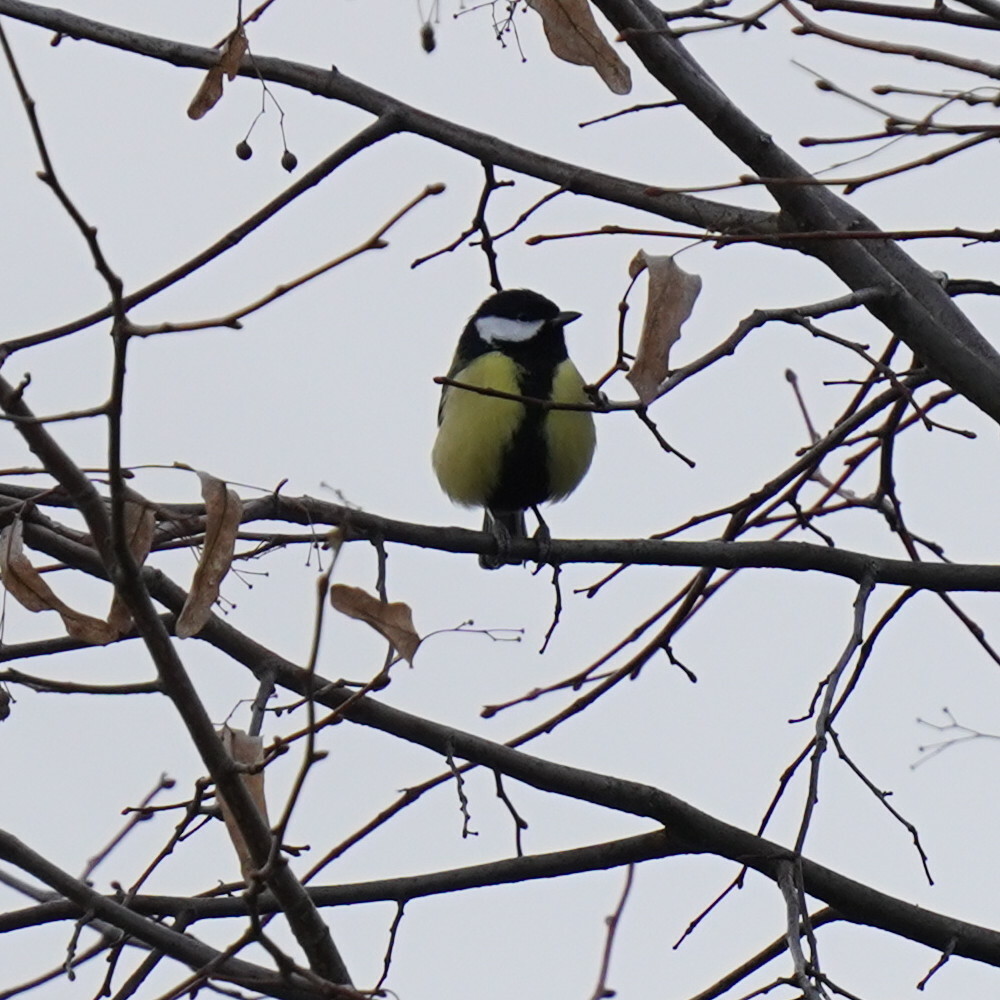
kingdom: Animalia
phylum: Chordata
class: Aves
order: Passeriformes
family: Paridae
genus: Parus
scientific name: Parus major
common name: Great tit
